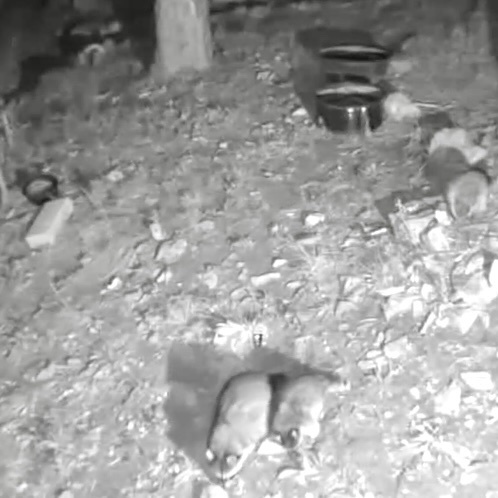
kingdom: Animalia
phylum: Chordata
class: Mammalia
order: Carnivora
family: Procyonidae
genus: Procyon
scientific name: Procyon lotor
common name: Raccoon
